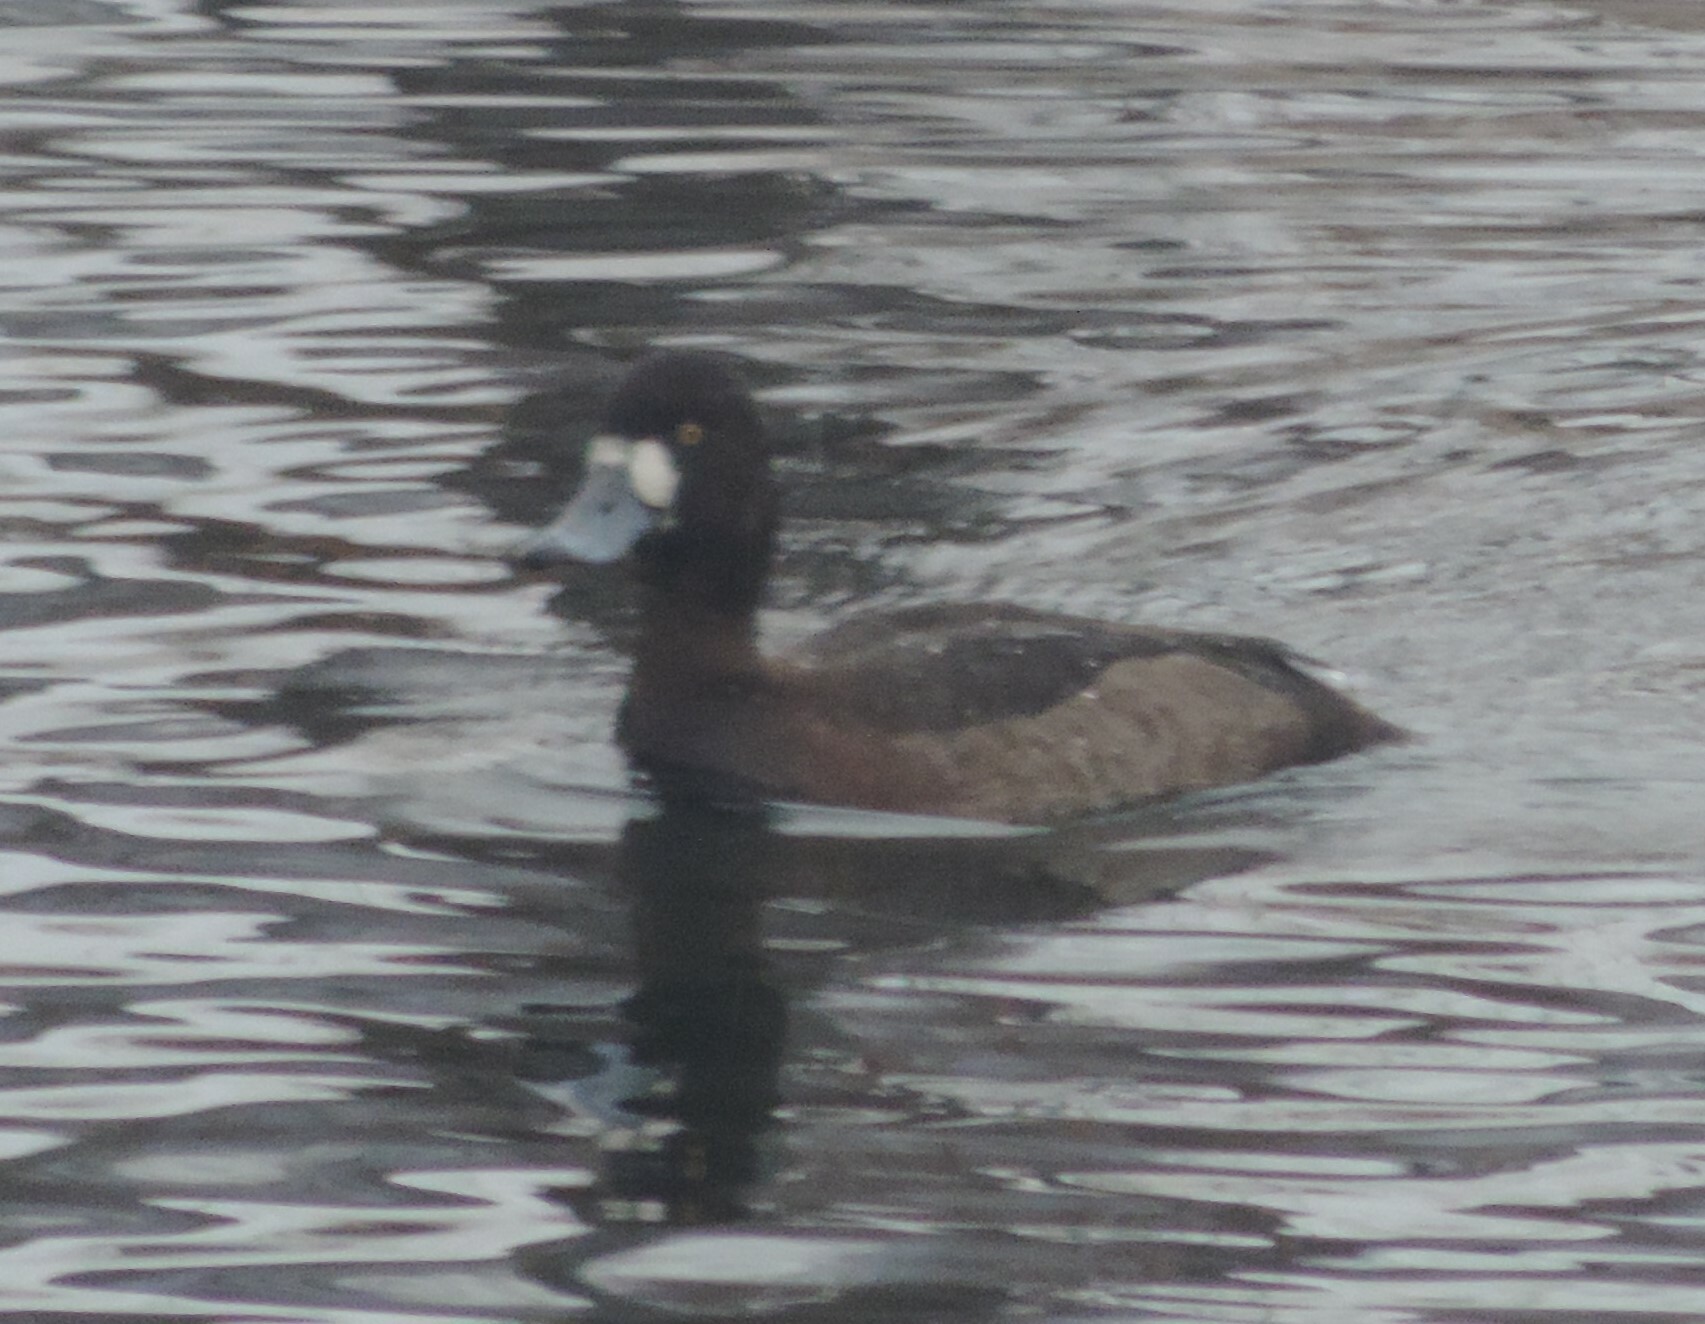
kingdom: Animalia
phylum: Chordata
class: Aves
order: Anseriformes
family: Anatidae
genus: Aythya
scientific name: Aythya marila
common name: Greater scaup
